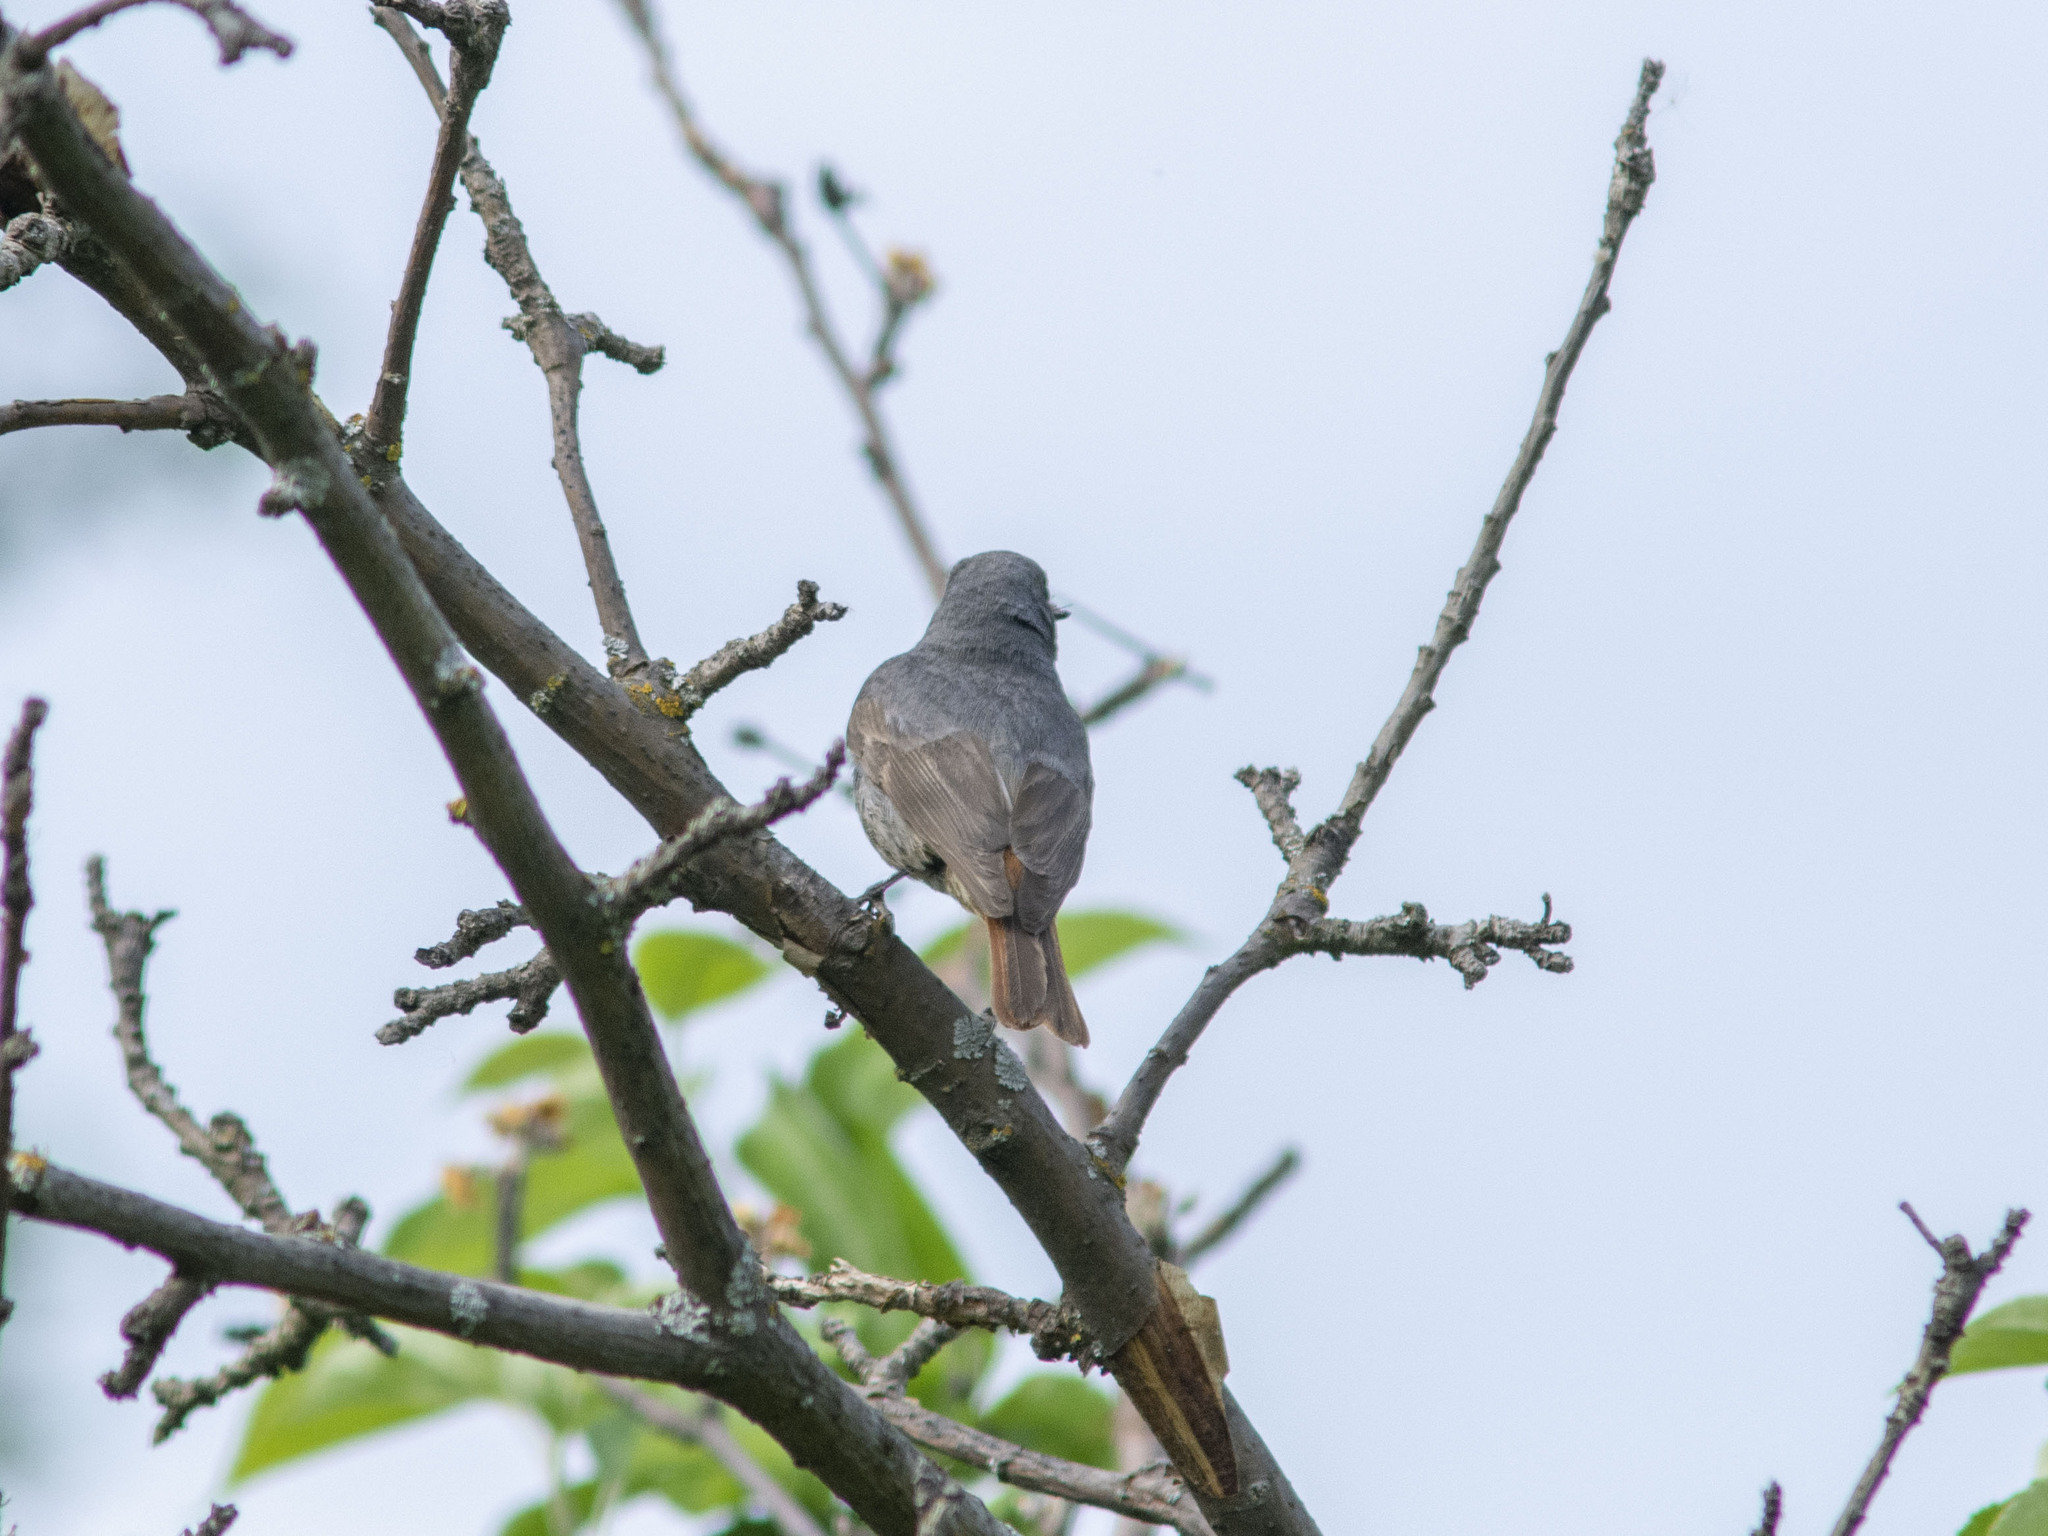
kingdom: Animalia
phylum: Chordata
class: Aves
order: Passeriformes
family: Muscicapidae
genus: Phoenicurus
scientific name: Phoenicurus ochruros
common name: Black redstart
